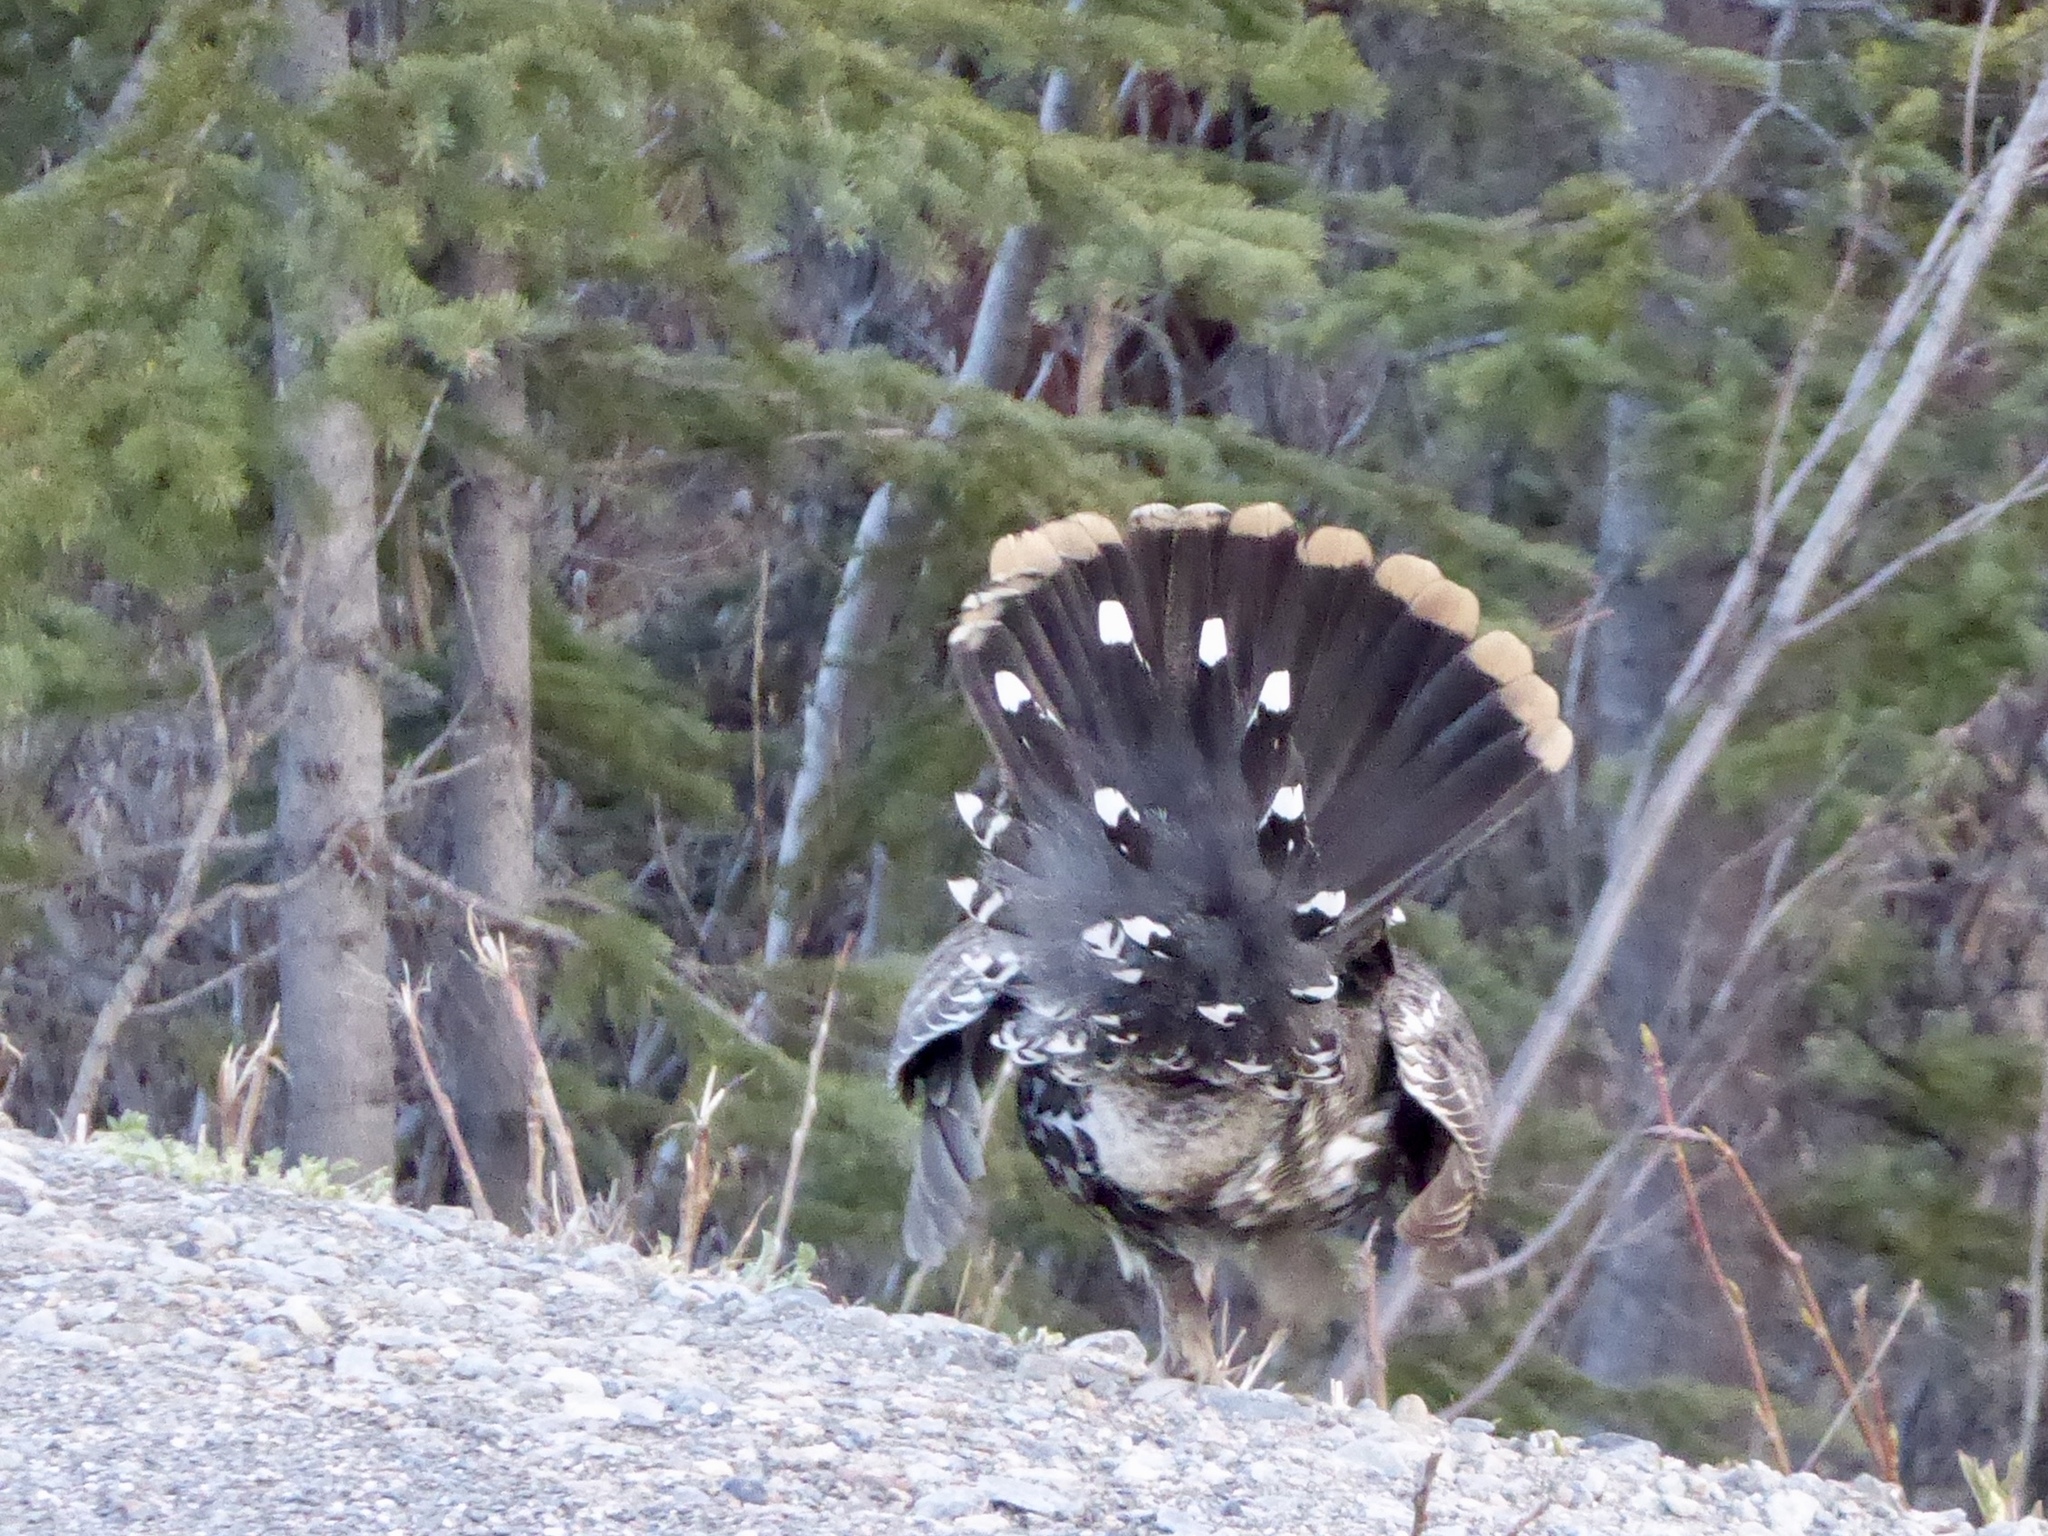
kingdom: Animalia
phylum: Chordata
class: Aves
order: Galliformes
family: Phasianidae
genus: Canachites
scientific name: Canachites canadensis
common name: Spruce grouse
